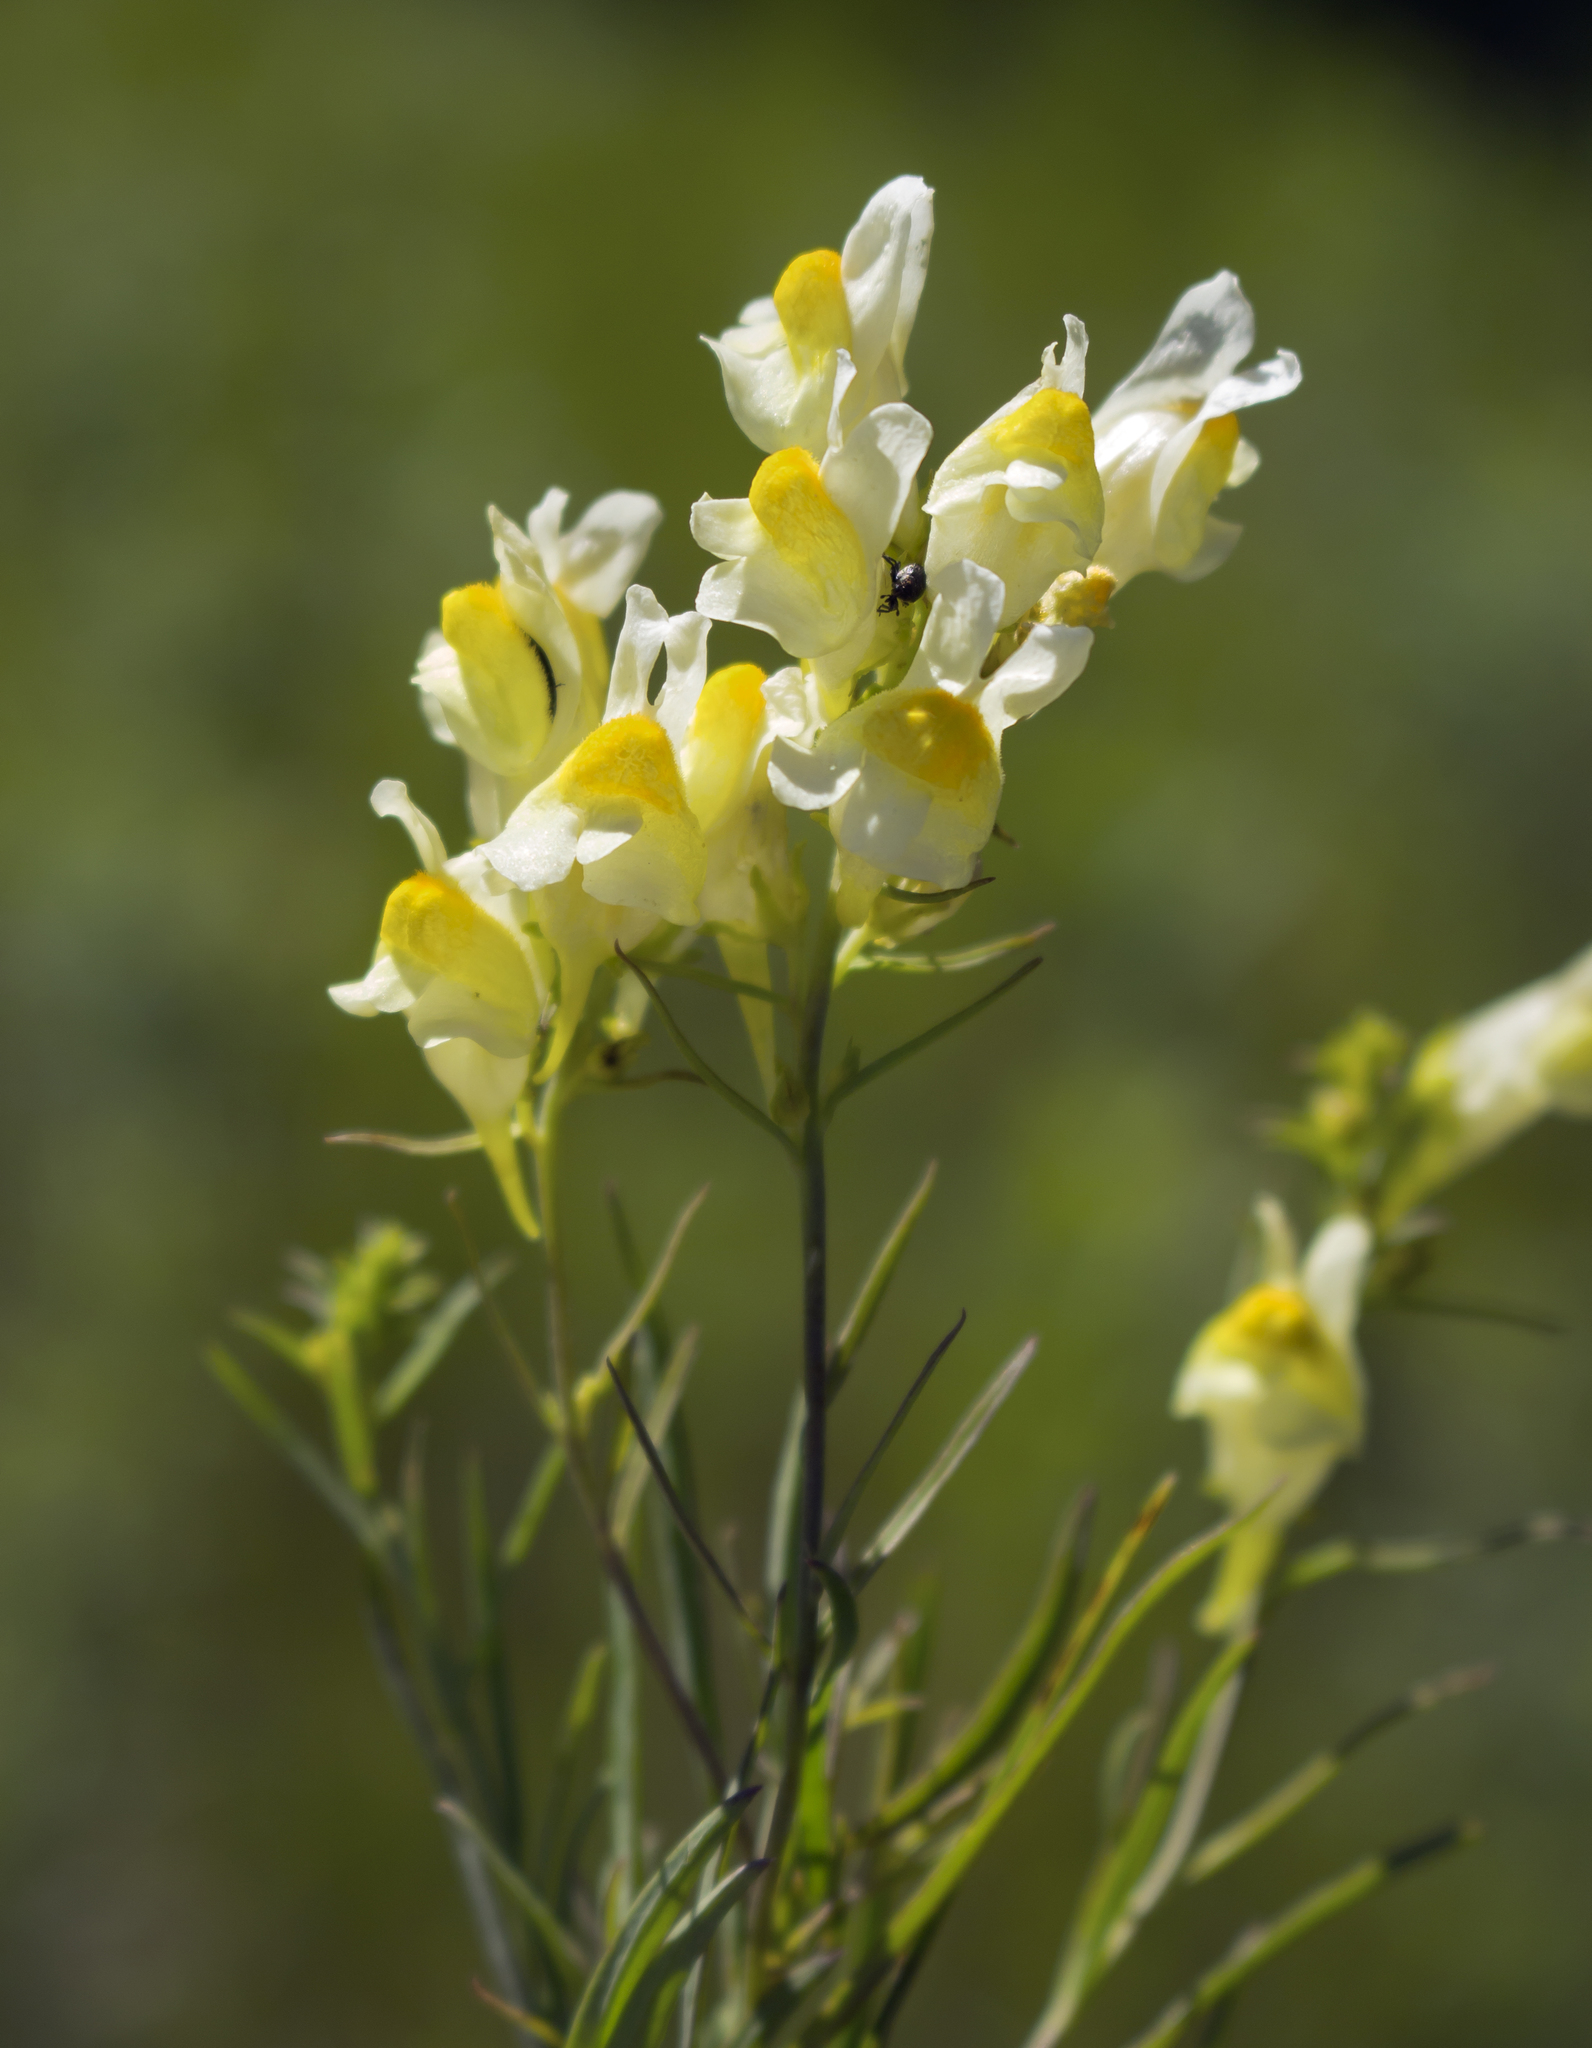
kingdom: Plantae
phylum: Tracheophyta
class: Magnoliopsida
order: Lamiales
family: Plantaginaceae
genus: Linaria
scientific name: Linaria vulgaris
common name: Butter and eggs
